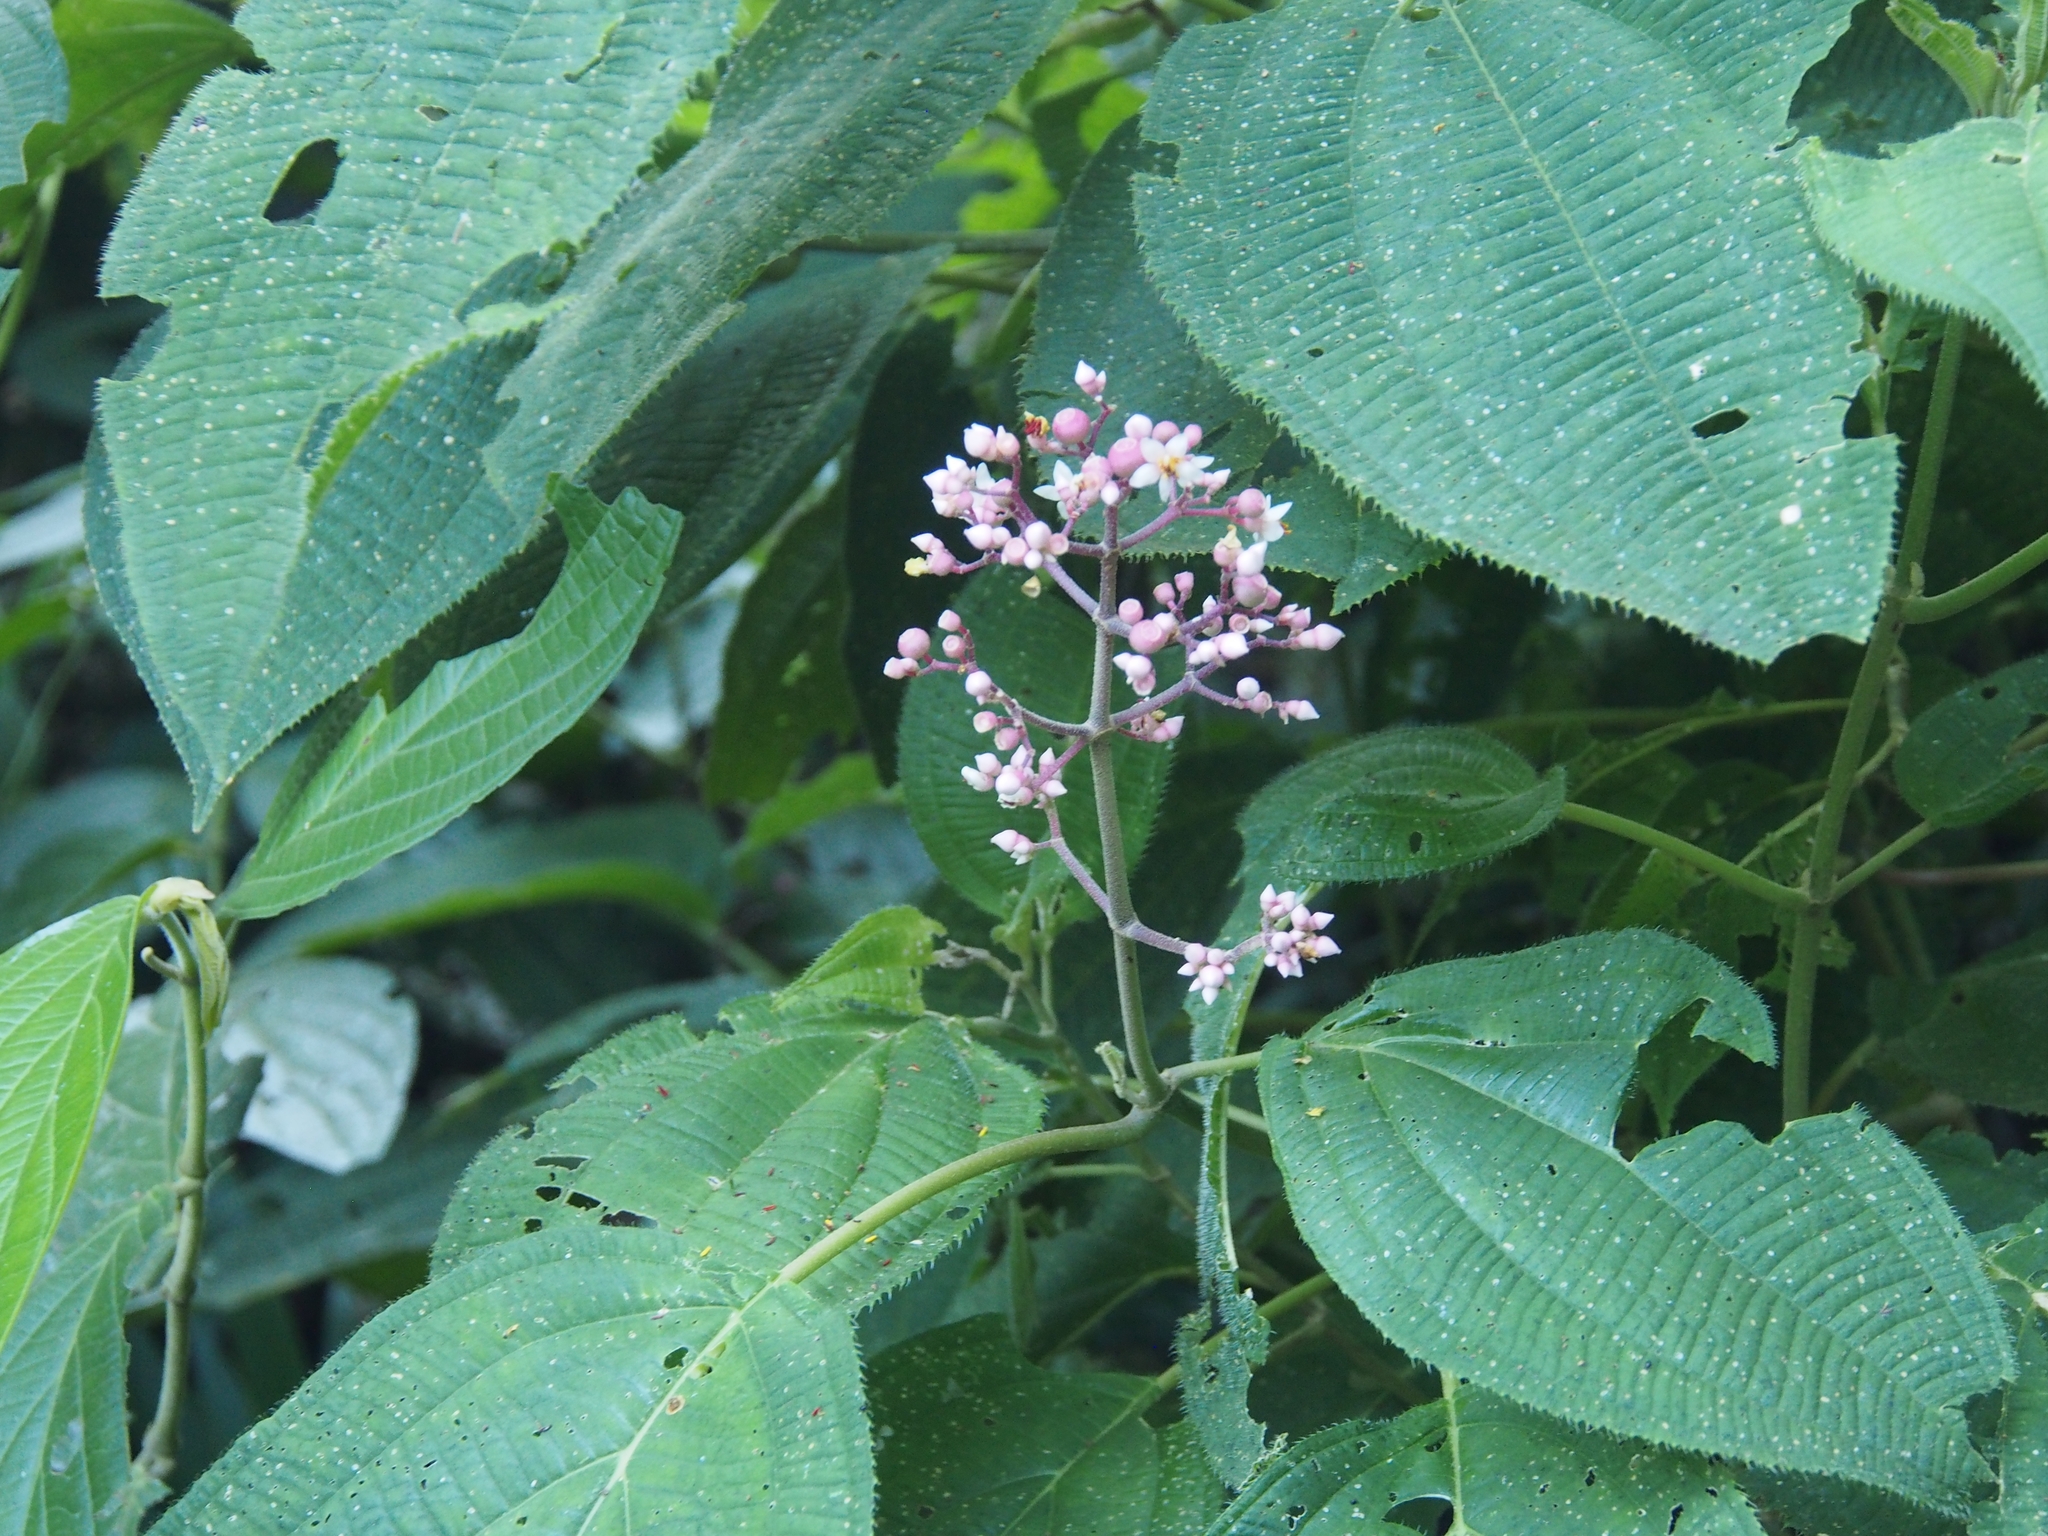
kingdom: Plantae
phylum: Tracheophyta
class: Magnoliopsida
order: Myrtales
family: Melastomataceae
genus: Miconia
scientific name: Miconia subcrustulata
